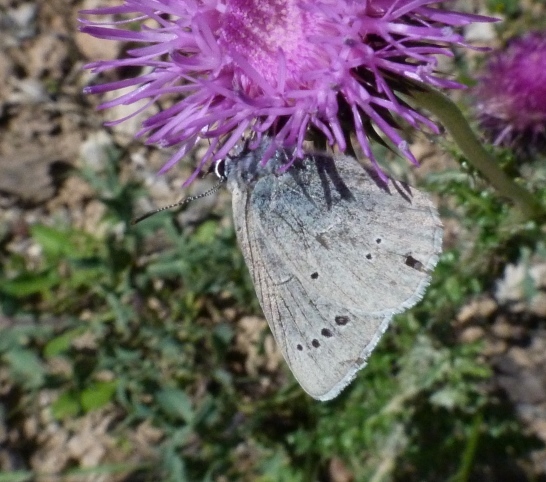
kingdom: Animalia
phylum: Arthropoda
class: Insecta
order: Lepidoptera
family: Lycaenidae
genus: Iolana
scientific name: Iolana debilitata
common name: Iolas blue
